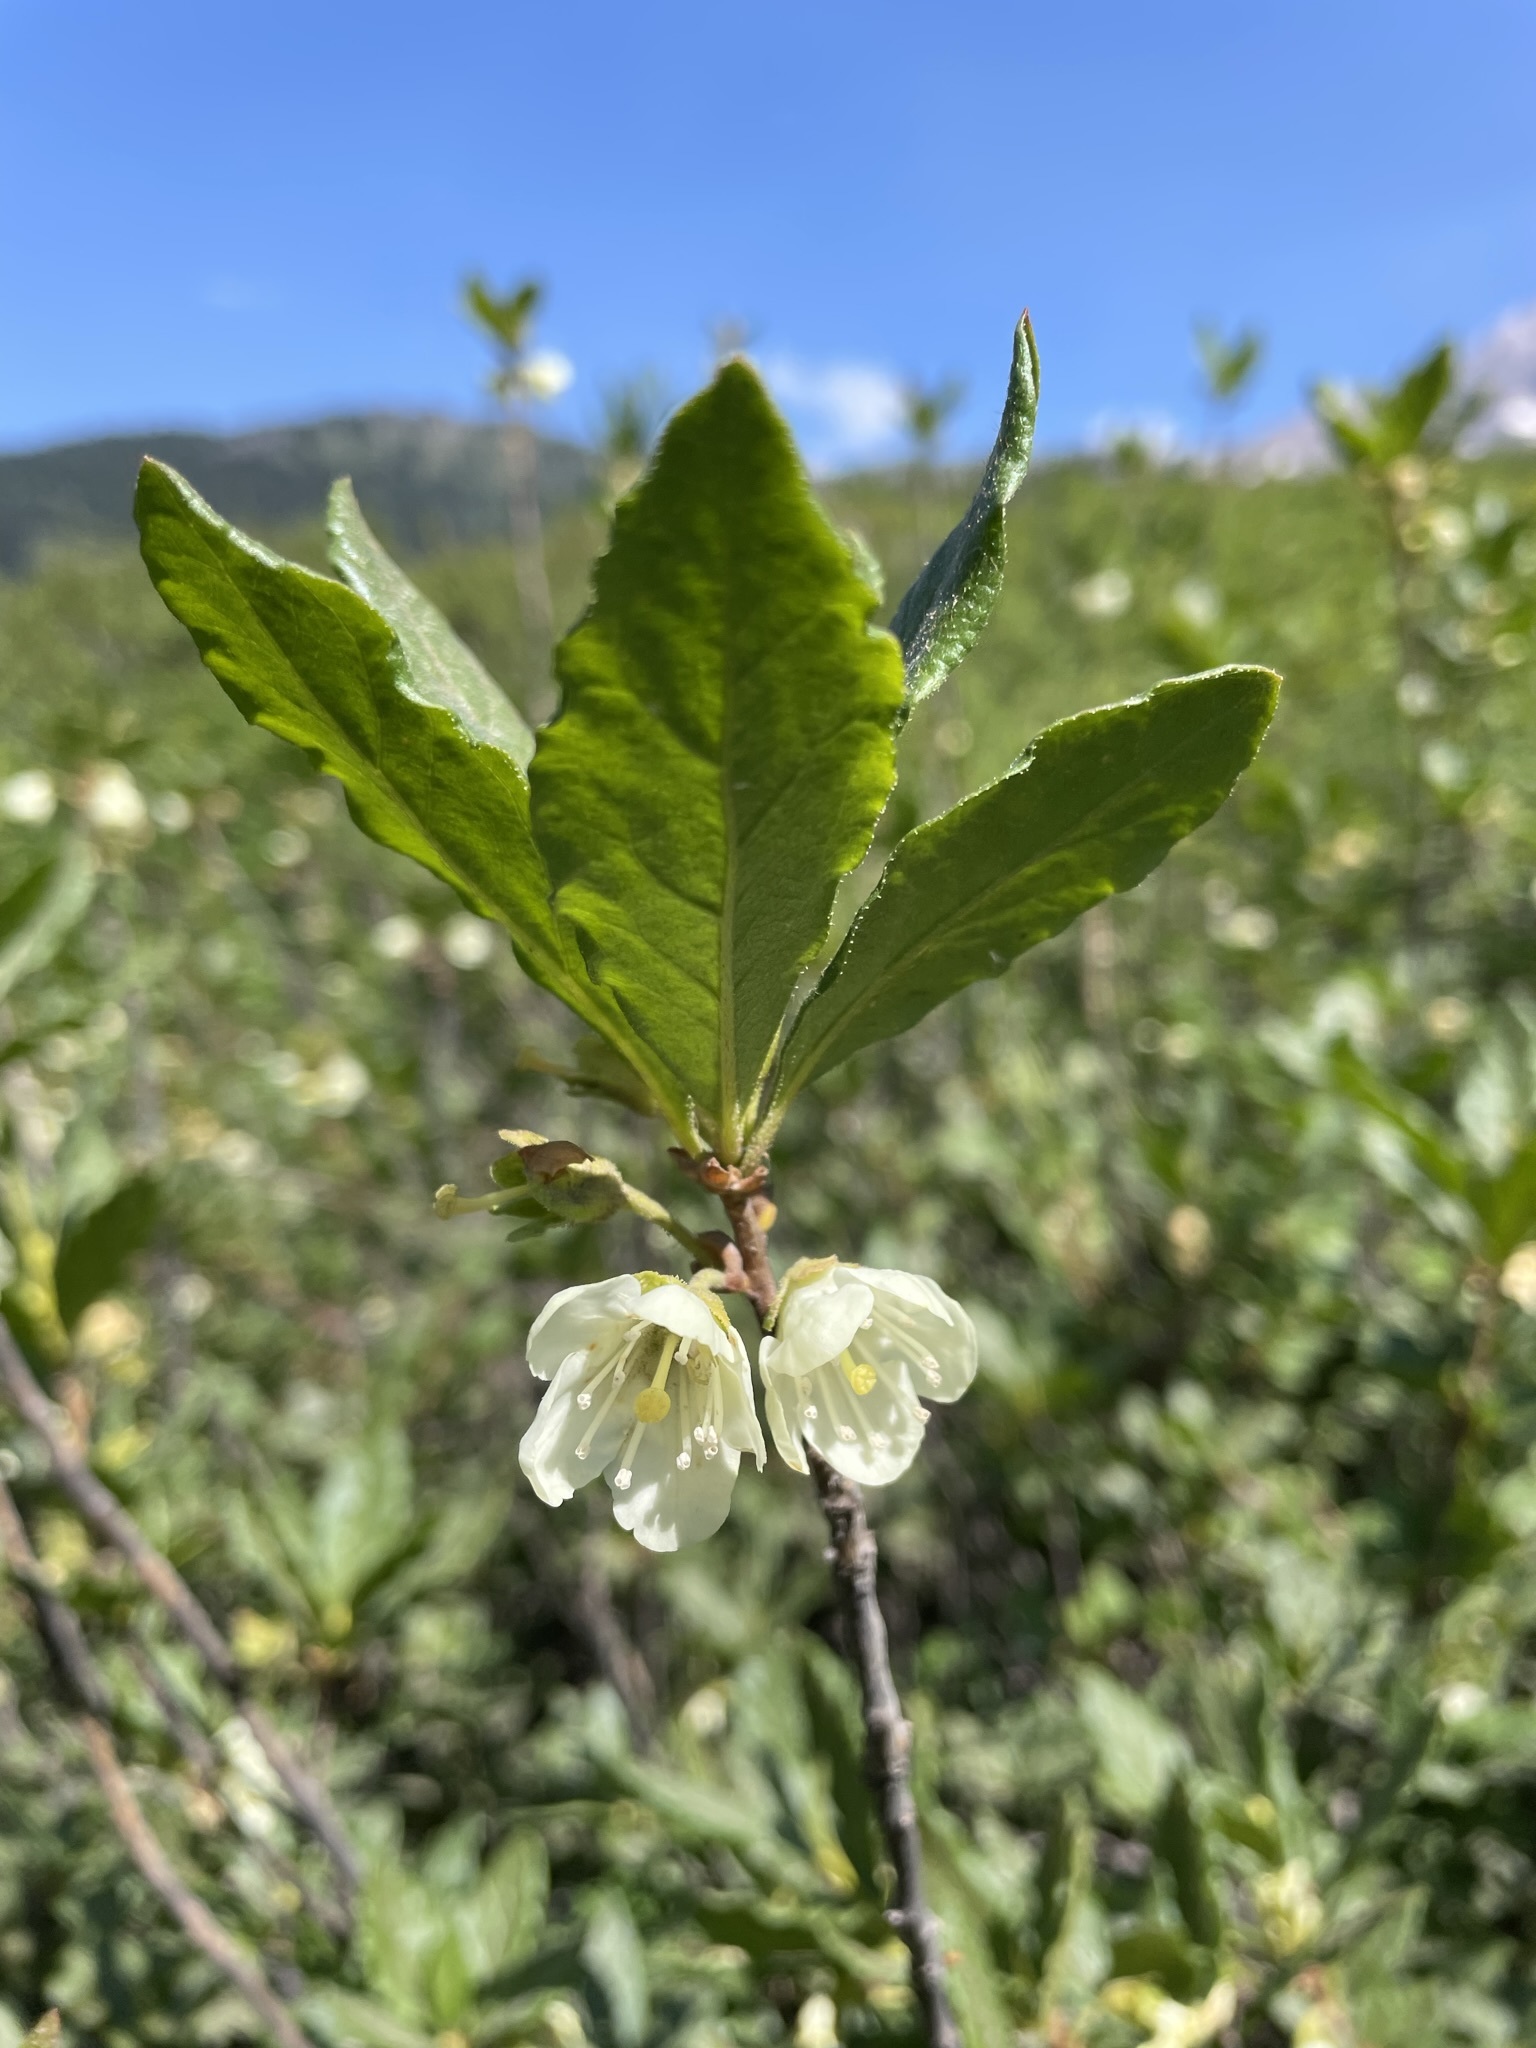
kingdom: Plantae
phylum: Tracheophyta
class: Magnoliopsida
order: Ericales
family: Ericaceae
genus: Rhododendron
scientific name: Rhododendron albiflorum
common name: White rhododendron
